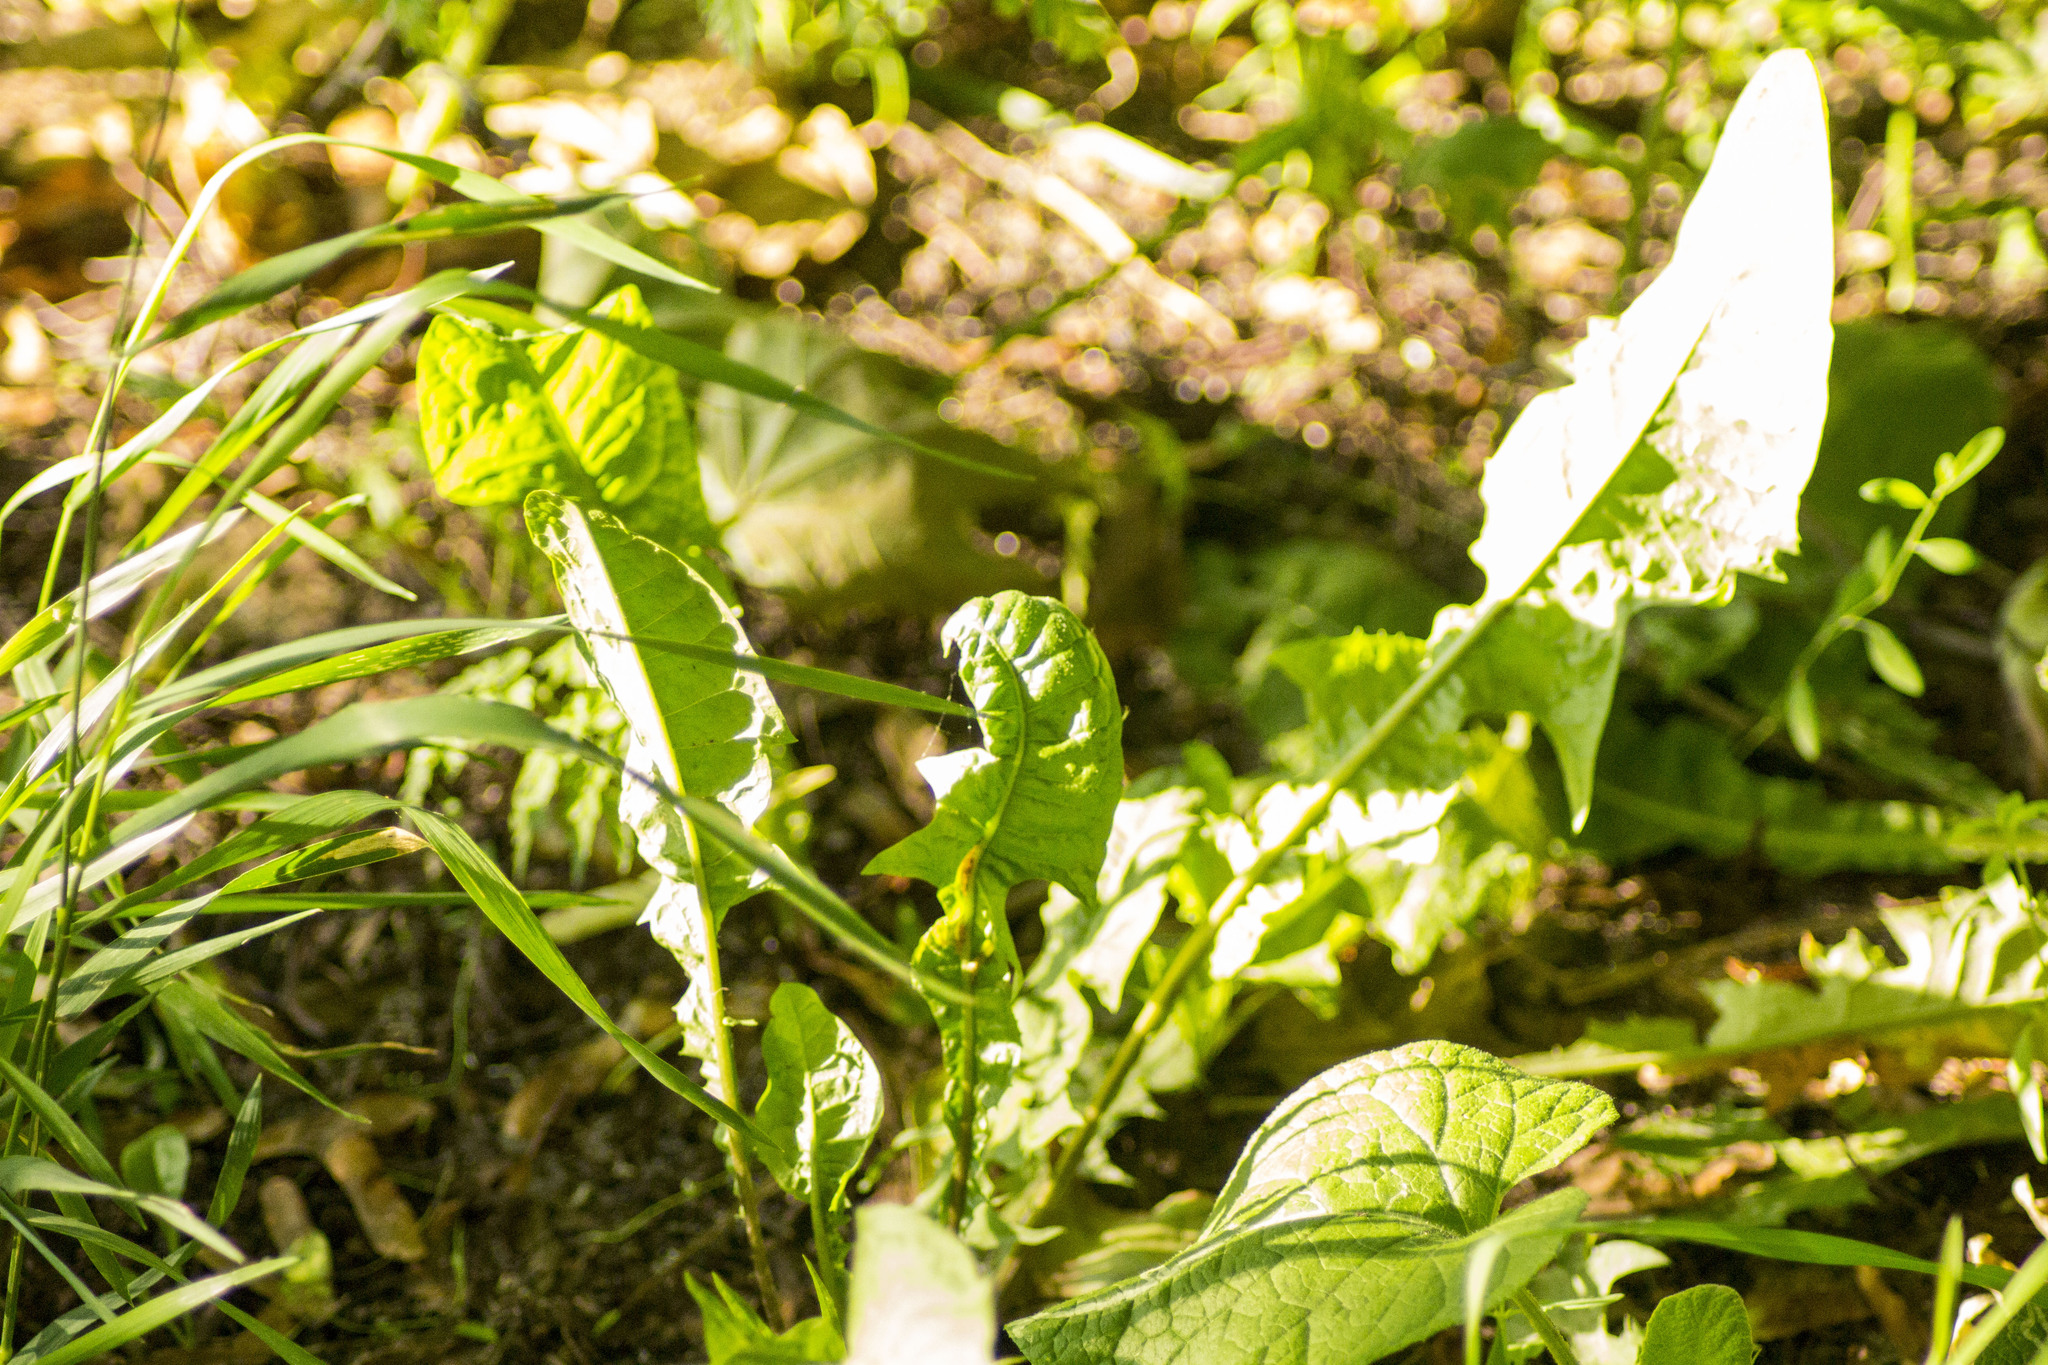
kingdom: Plantae
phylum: Tracheophyta
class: Magnoliopsida
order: Asterales
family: Asteraceae
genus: Taraxacum
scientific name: Taraxacum officinale
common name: Common dandelion
